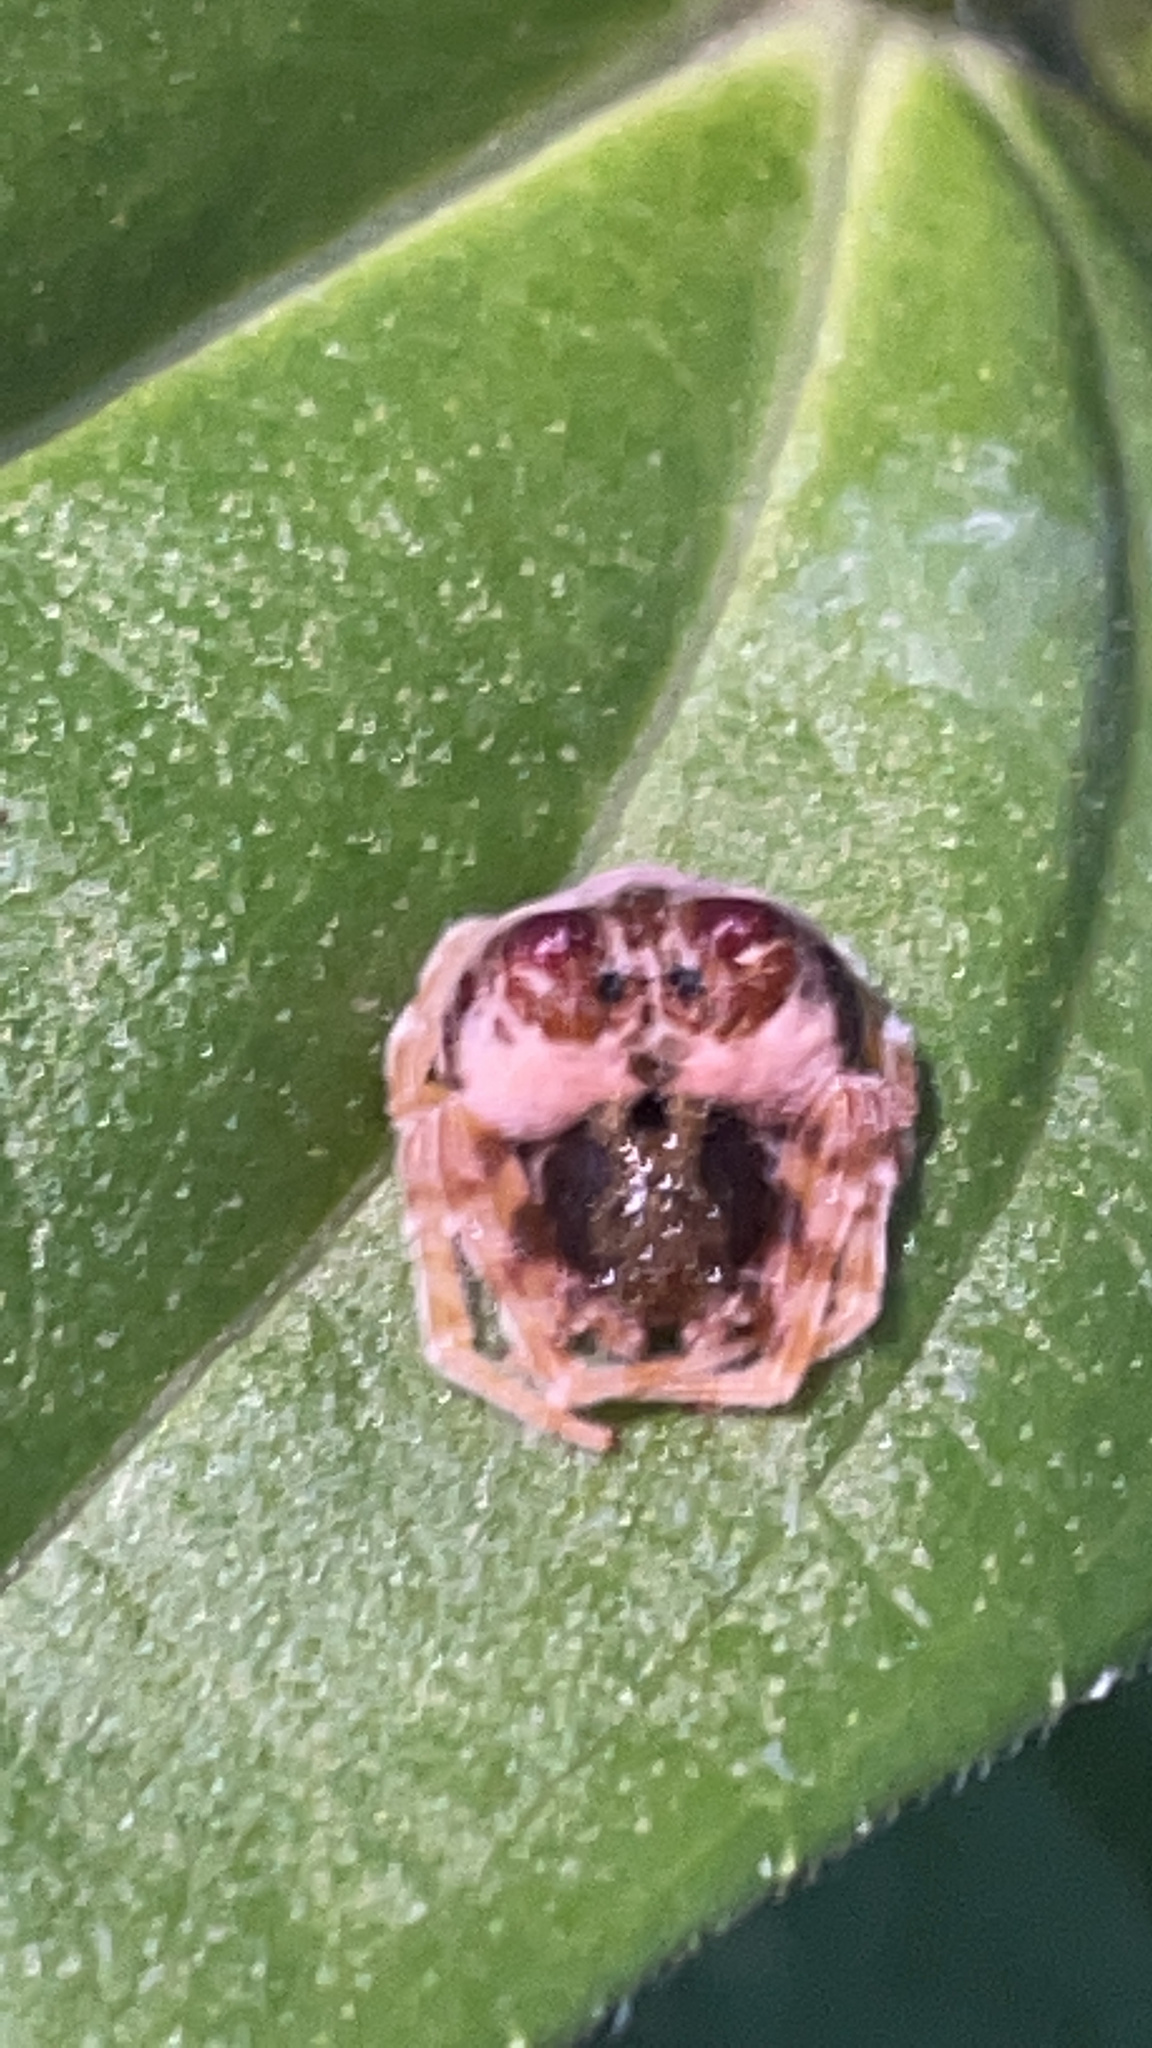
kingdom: Animalia
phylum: Arthropoda
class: Arachnida
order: Araneae
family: Araneidae
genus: Mastophora
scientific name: Mastophora hutchinsoni
